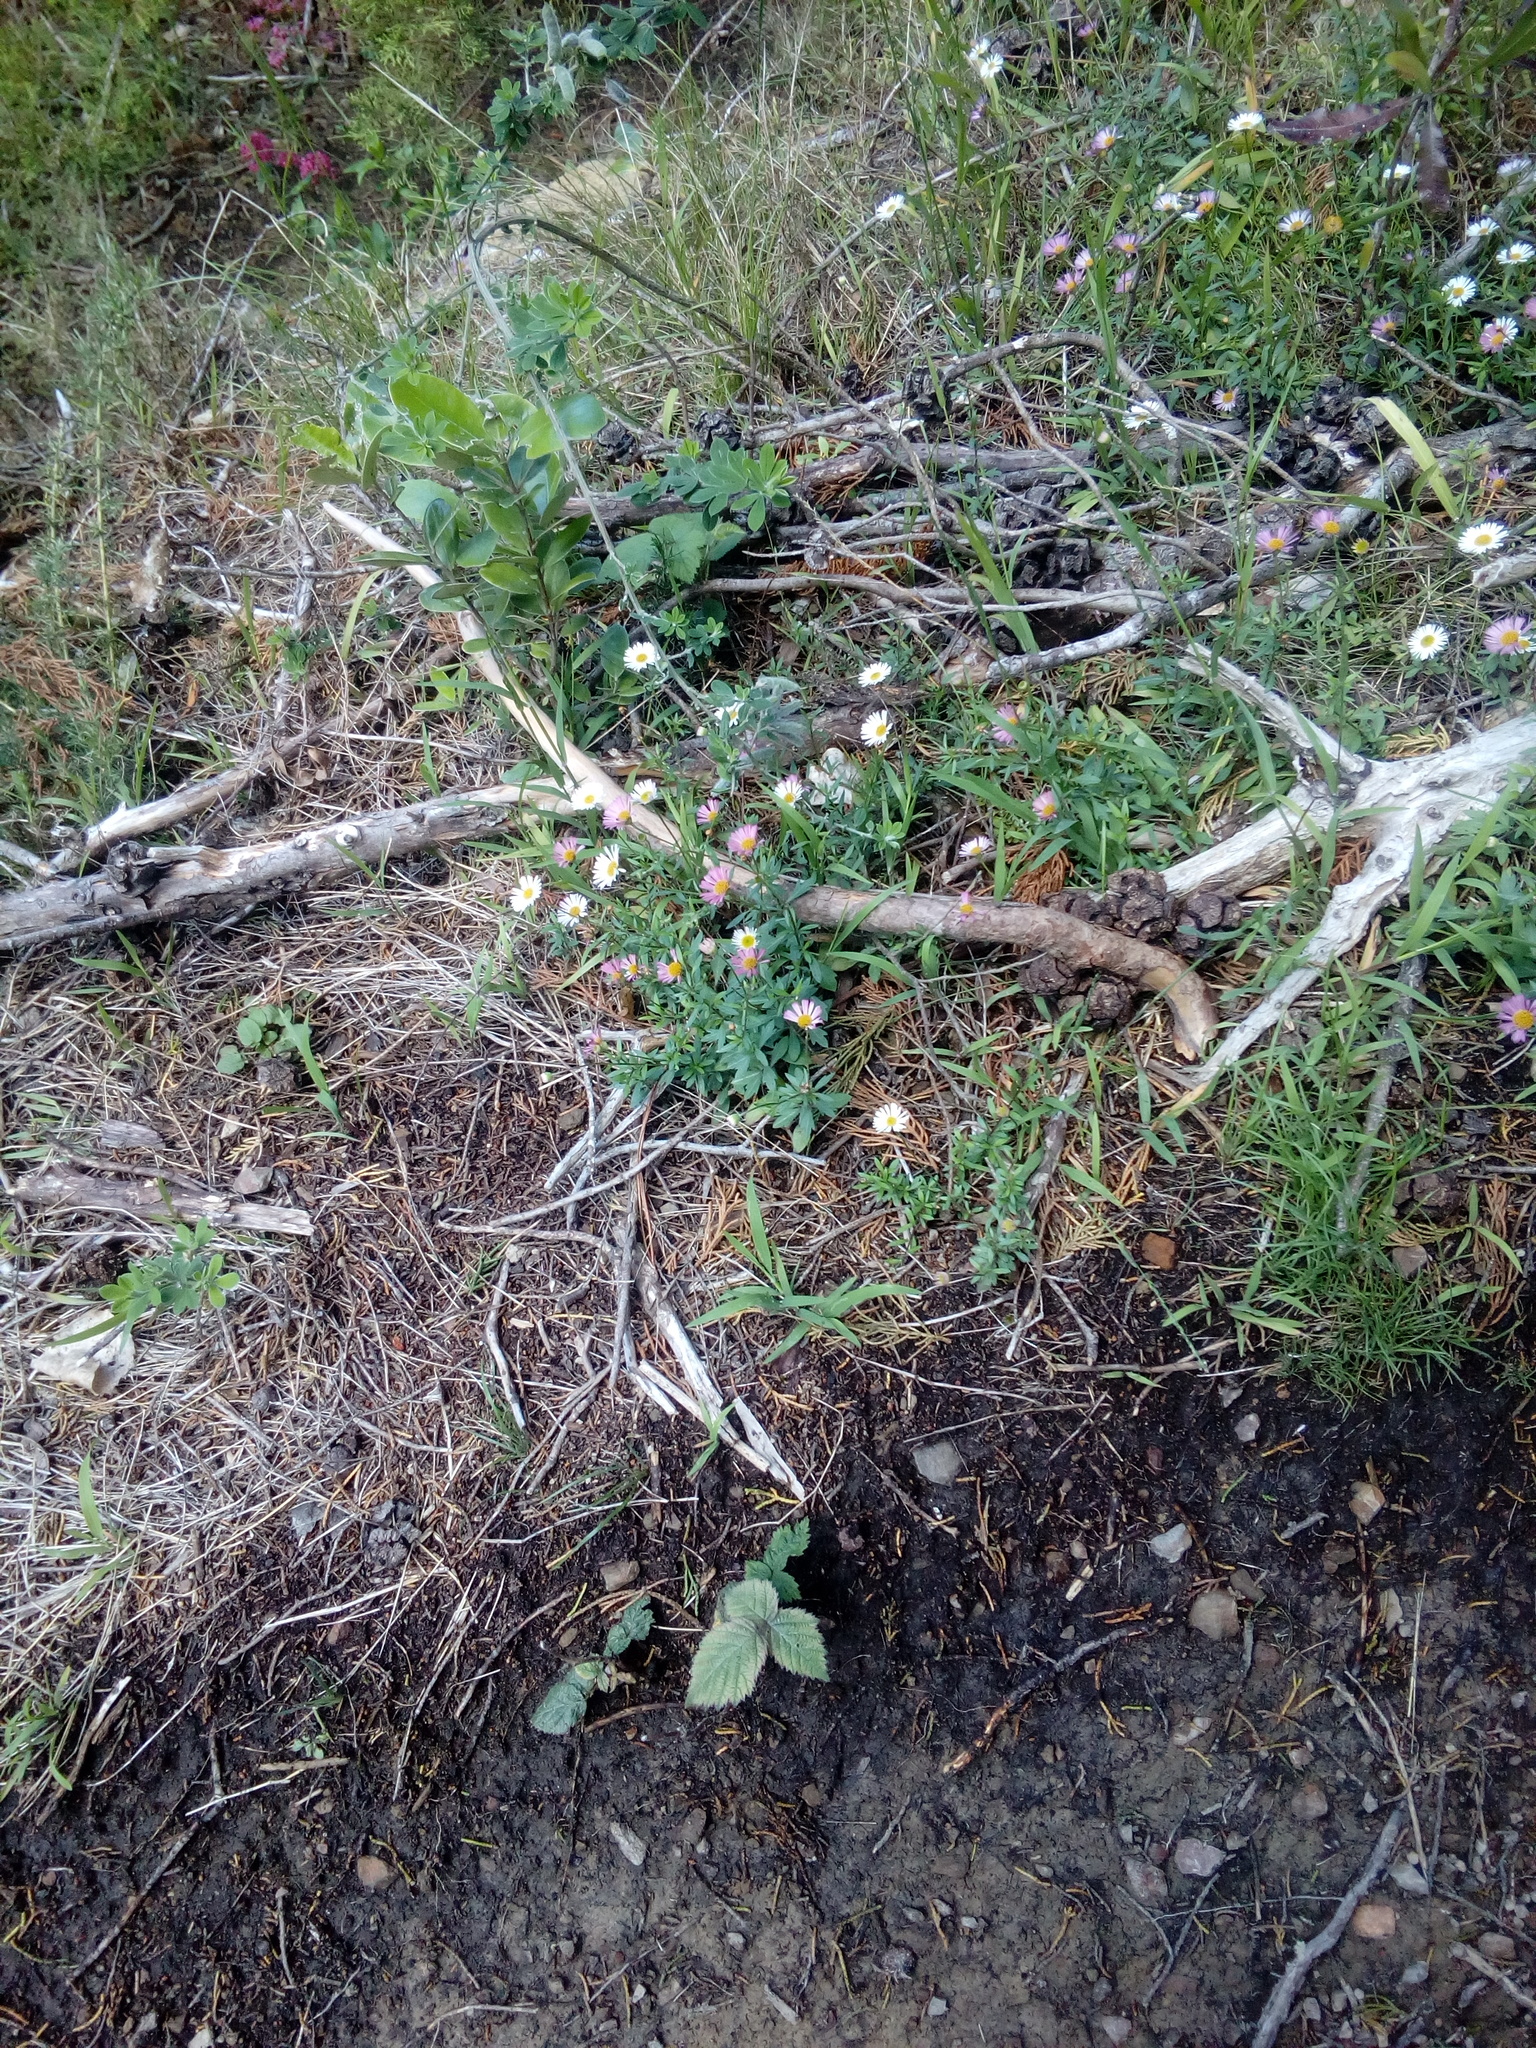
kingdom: Plantae
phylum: Tracheophyta
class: Magnoliopsida
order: Asterales
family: Asteraceae
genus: Erigeron
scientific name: Erigeron karvinskianus
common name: Mexican fleabane
